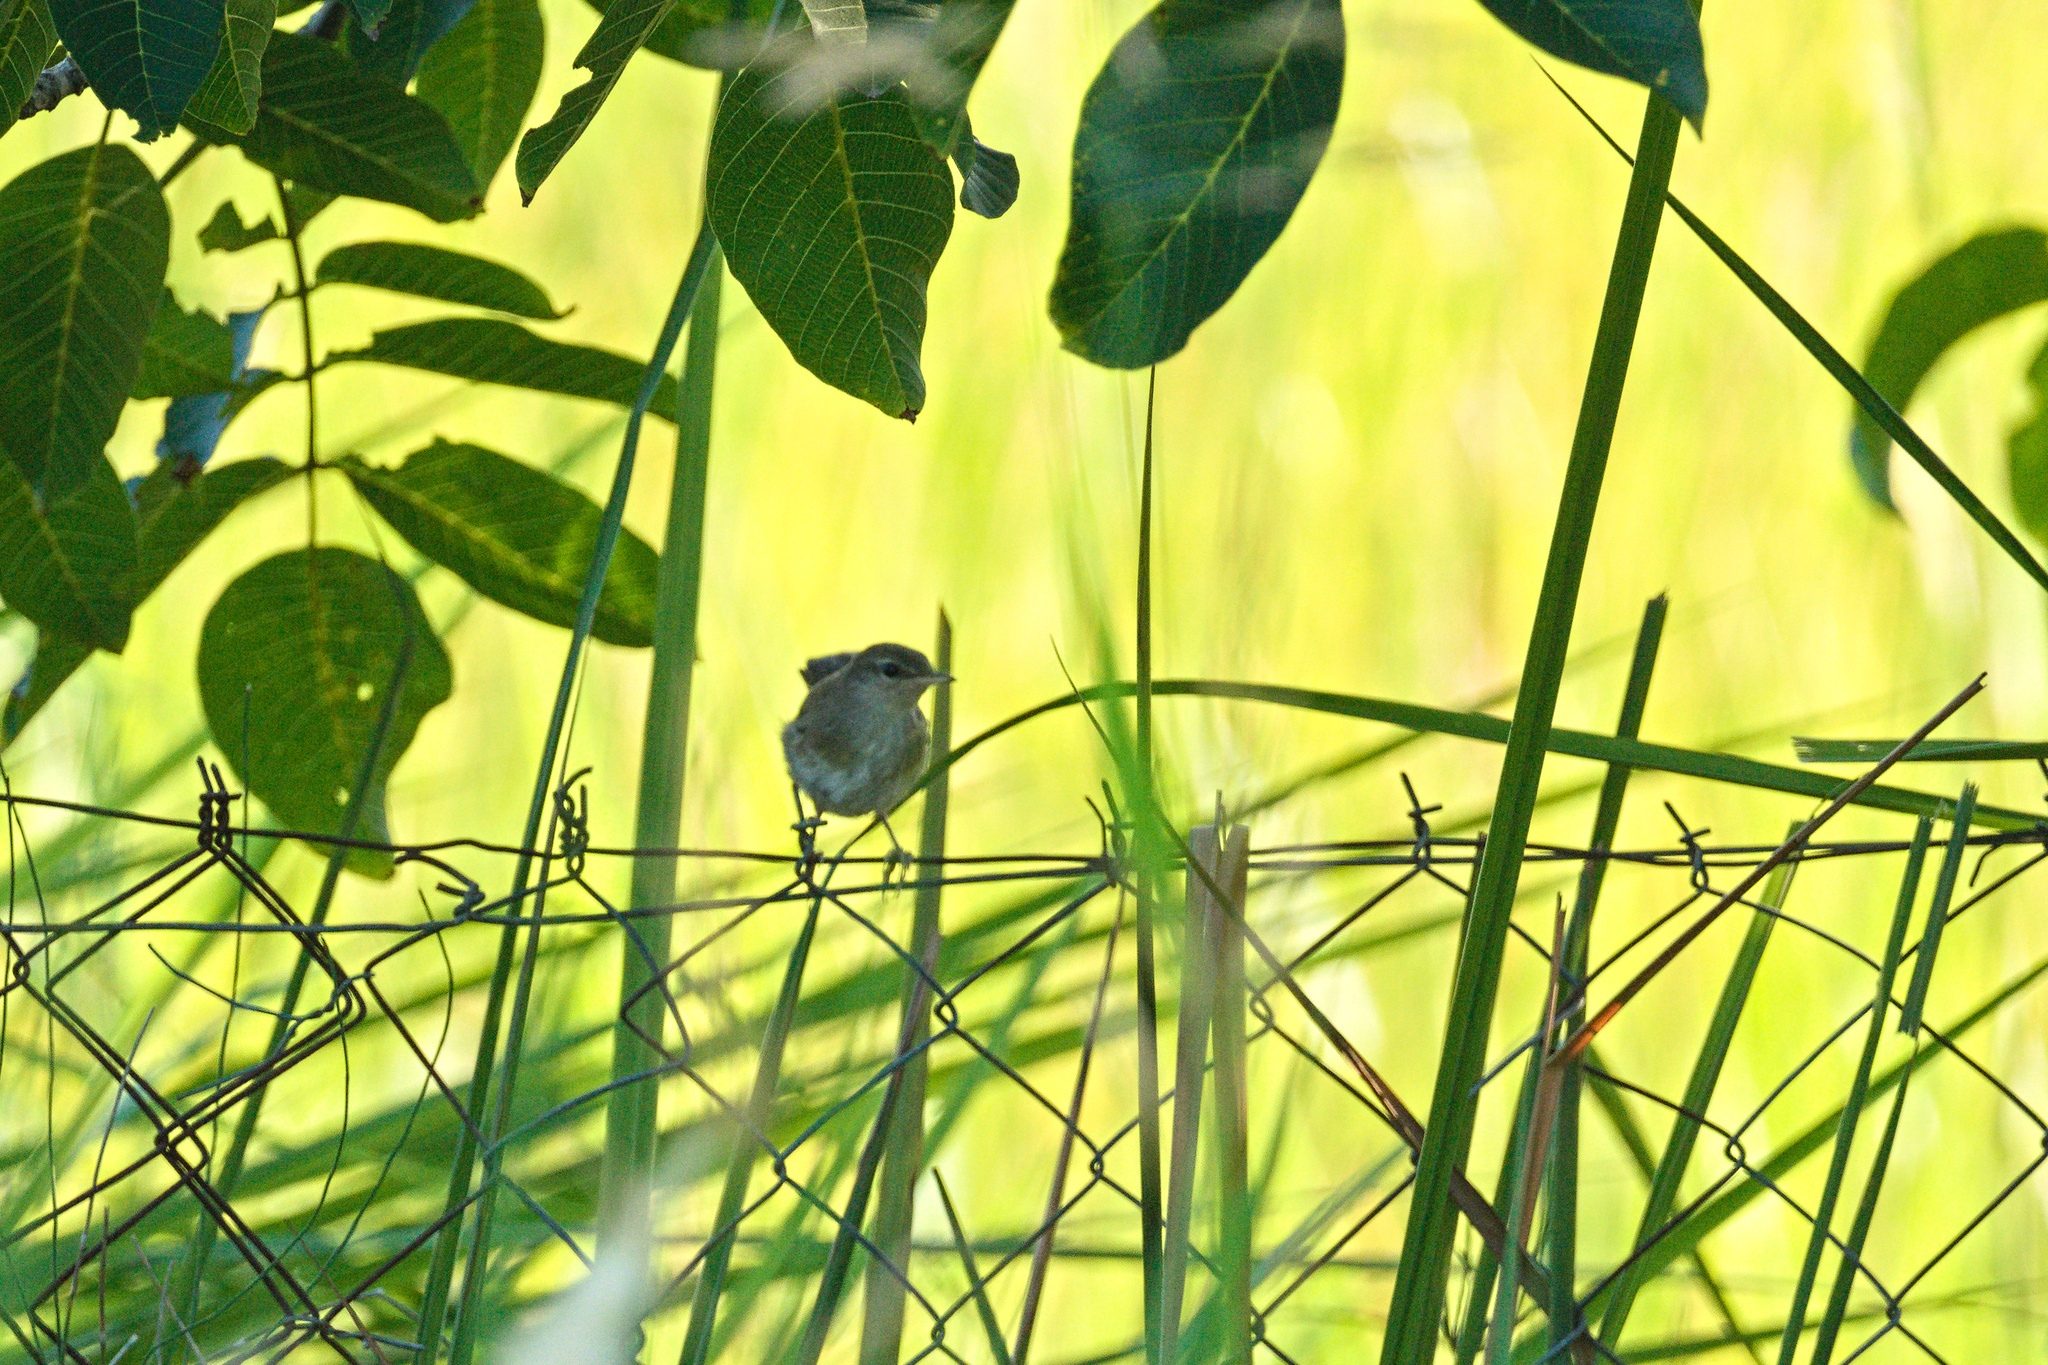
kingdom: Animalia
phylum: Chordata
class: Aves
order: Passeriformes
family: Cettiidae
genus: Cettia
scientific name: Cettia cetti
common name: Cetti's warbler
